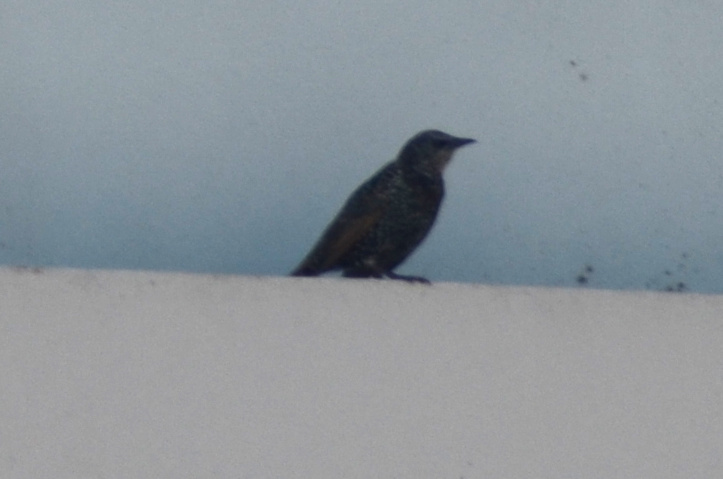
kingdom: Animalia
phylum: Chordata
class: Aves
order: Passeriformes
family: Sturnidae
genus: Sturnus
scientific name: Sturnus vulgaris
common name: Common starling
